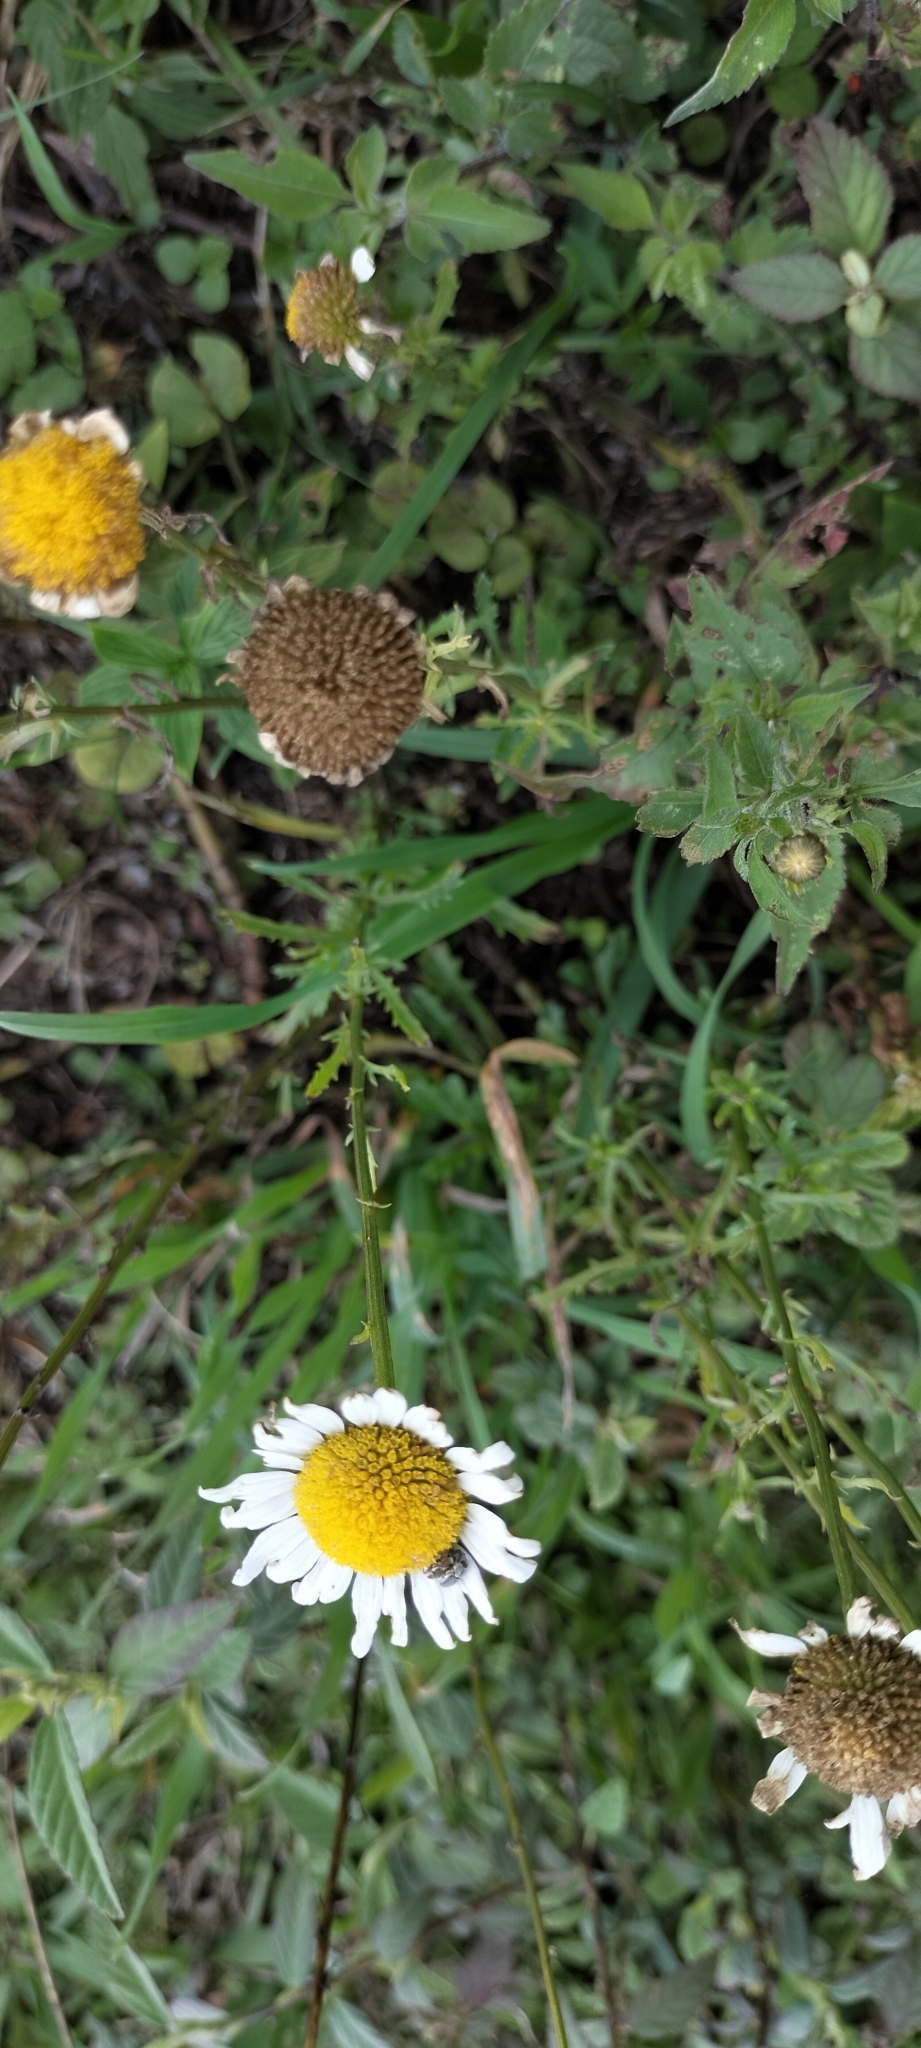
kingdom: Plantae
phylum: Tracheophyta
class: Magnoliopsida
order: Asterales
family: Asteraceae
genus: Leucanthemum
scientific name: Leucanthemum vulgare
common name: Oxeye daisy
